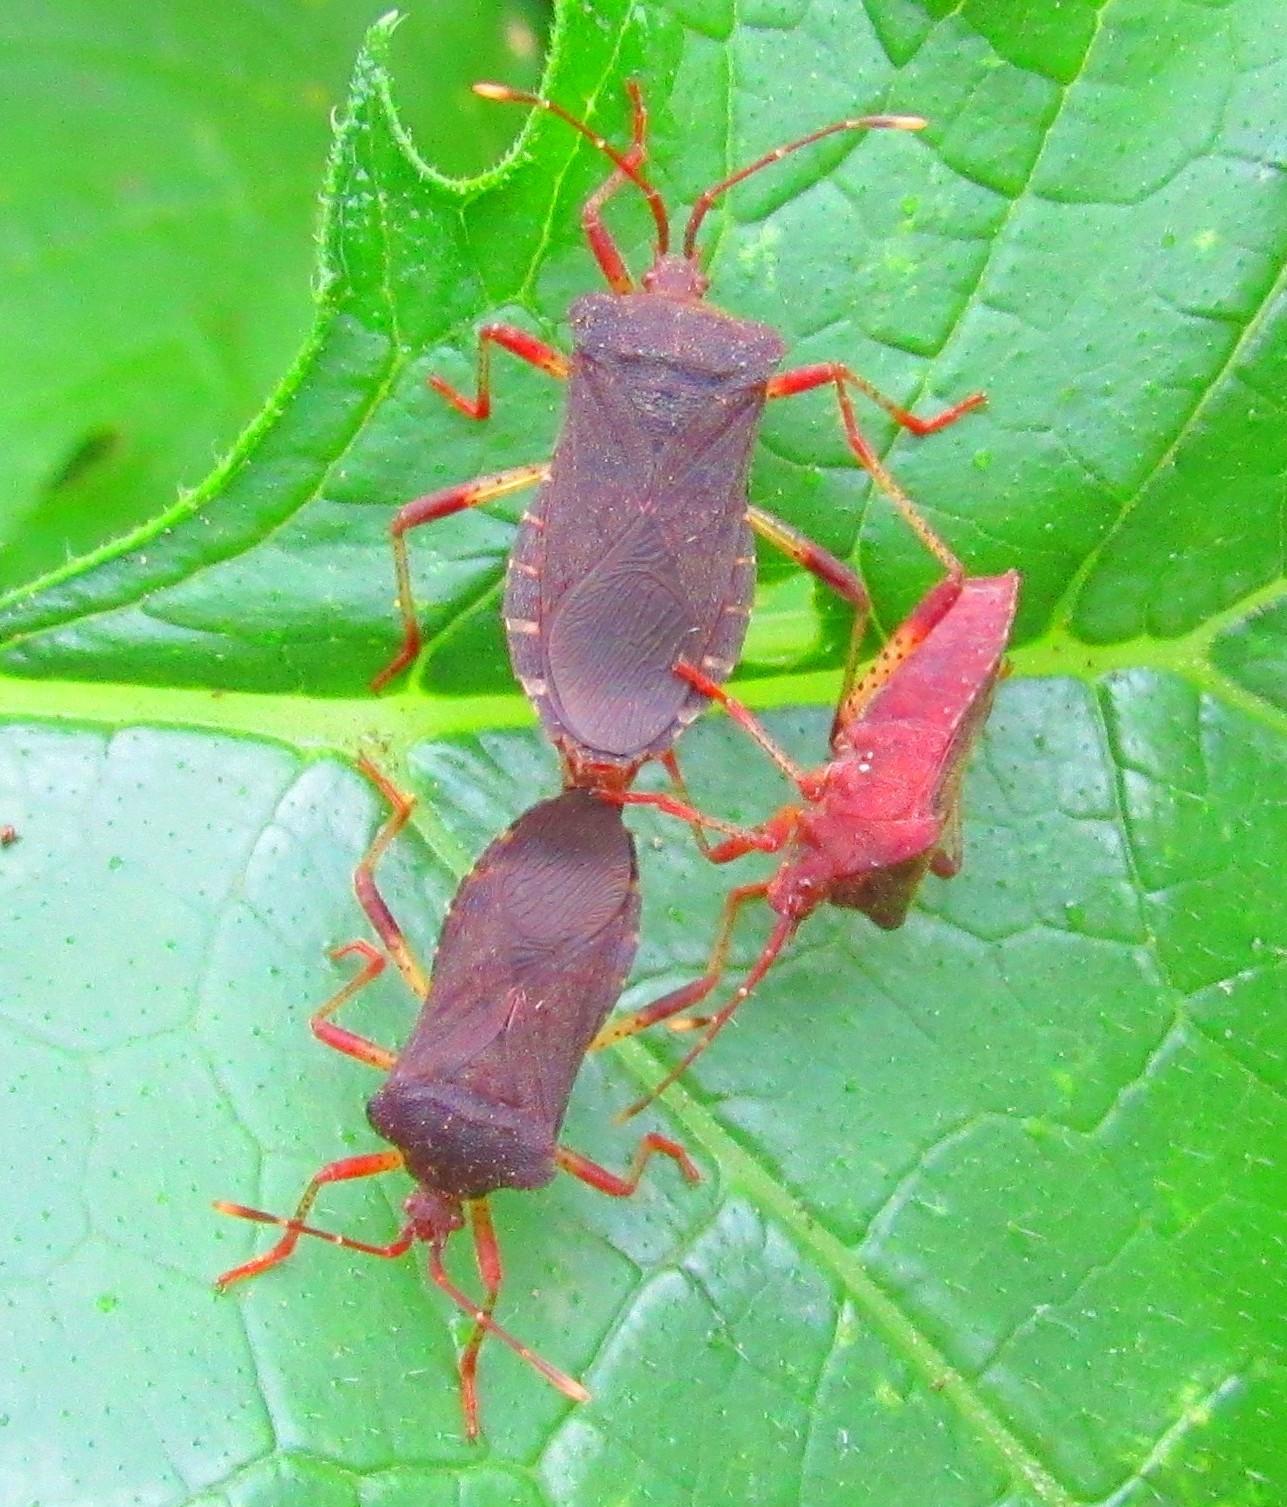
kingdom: Animalia
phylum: Arthropoda
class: Insecta
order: Hemiptera
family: Coreidae
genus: Anasa
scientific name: Anasa scorbutica
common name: Squash bug
